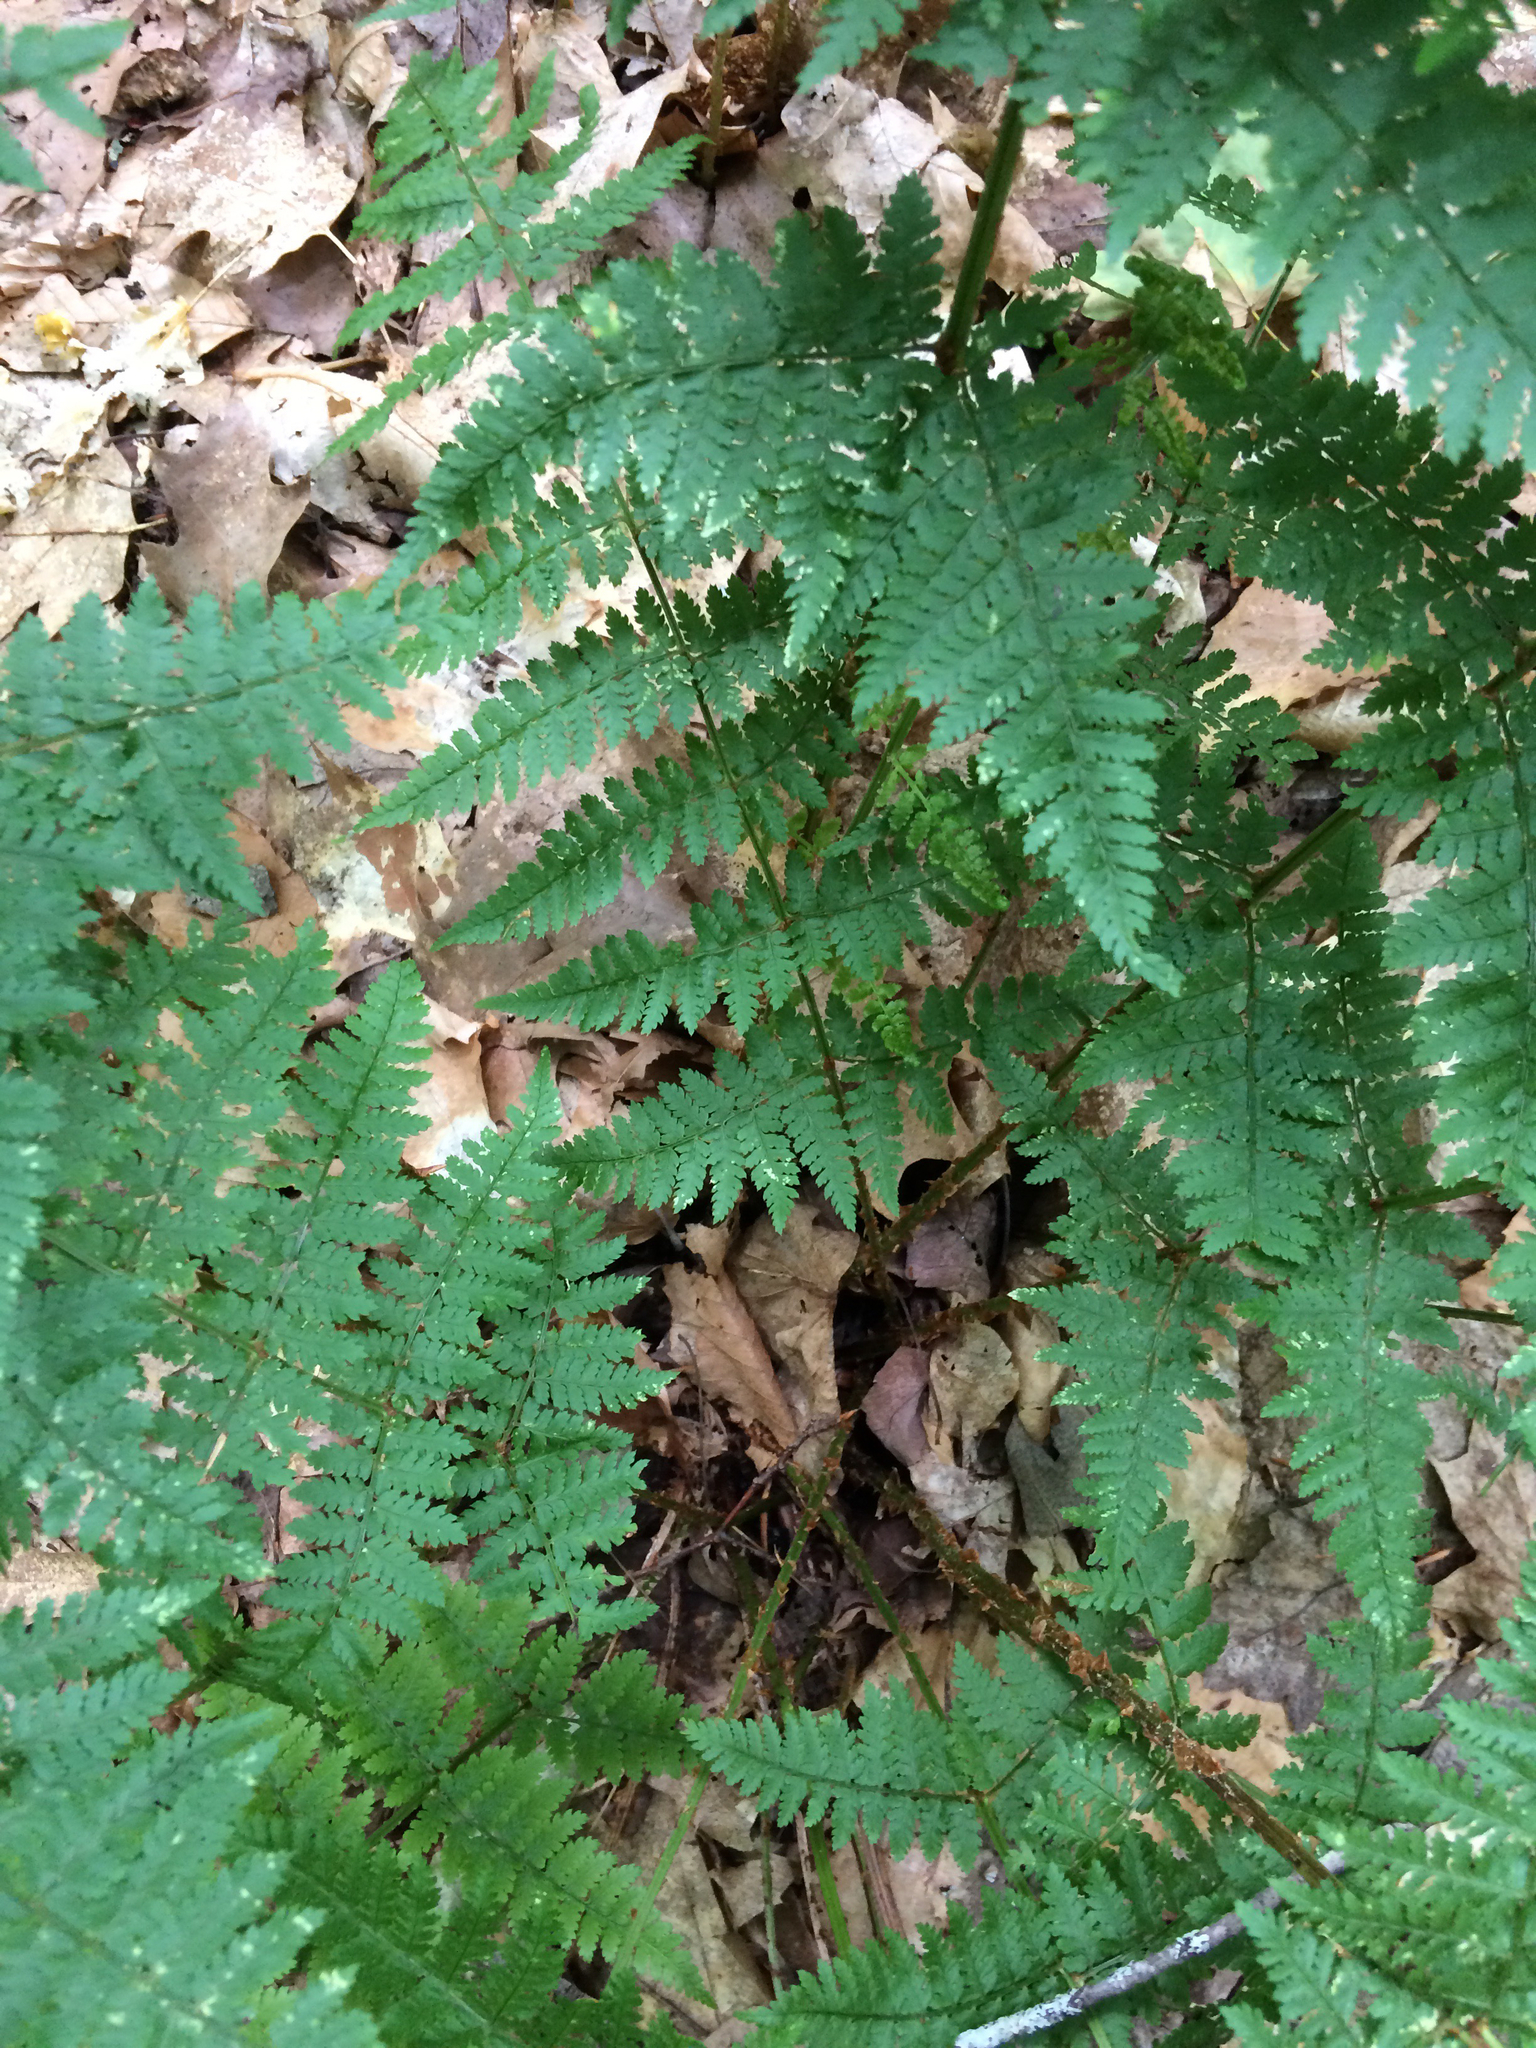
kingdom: Plantae
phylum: Tracheophyta
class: Polypodiopsida
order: Polypodiales
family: Dryopteridaceae
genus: Dryopteris
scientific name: Dryopteris campyloptera
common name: Mountain wood fern
